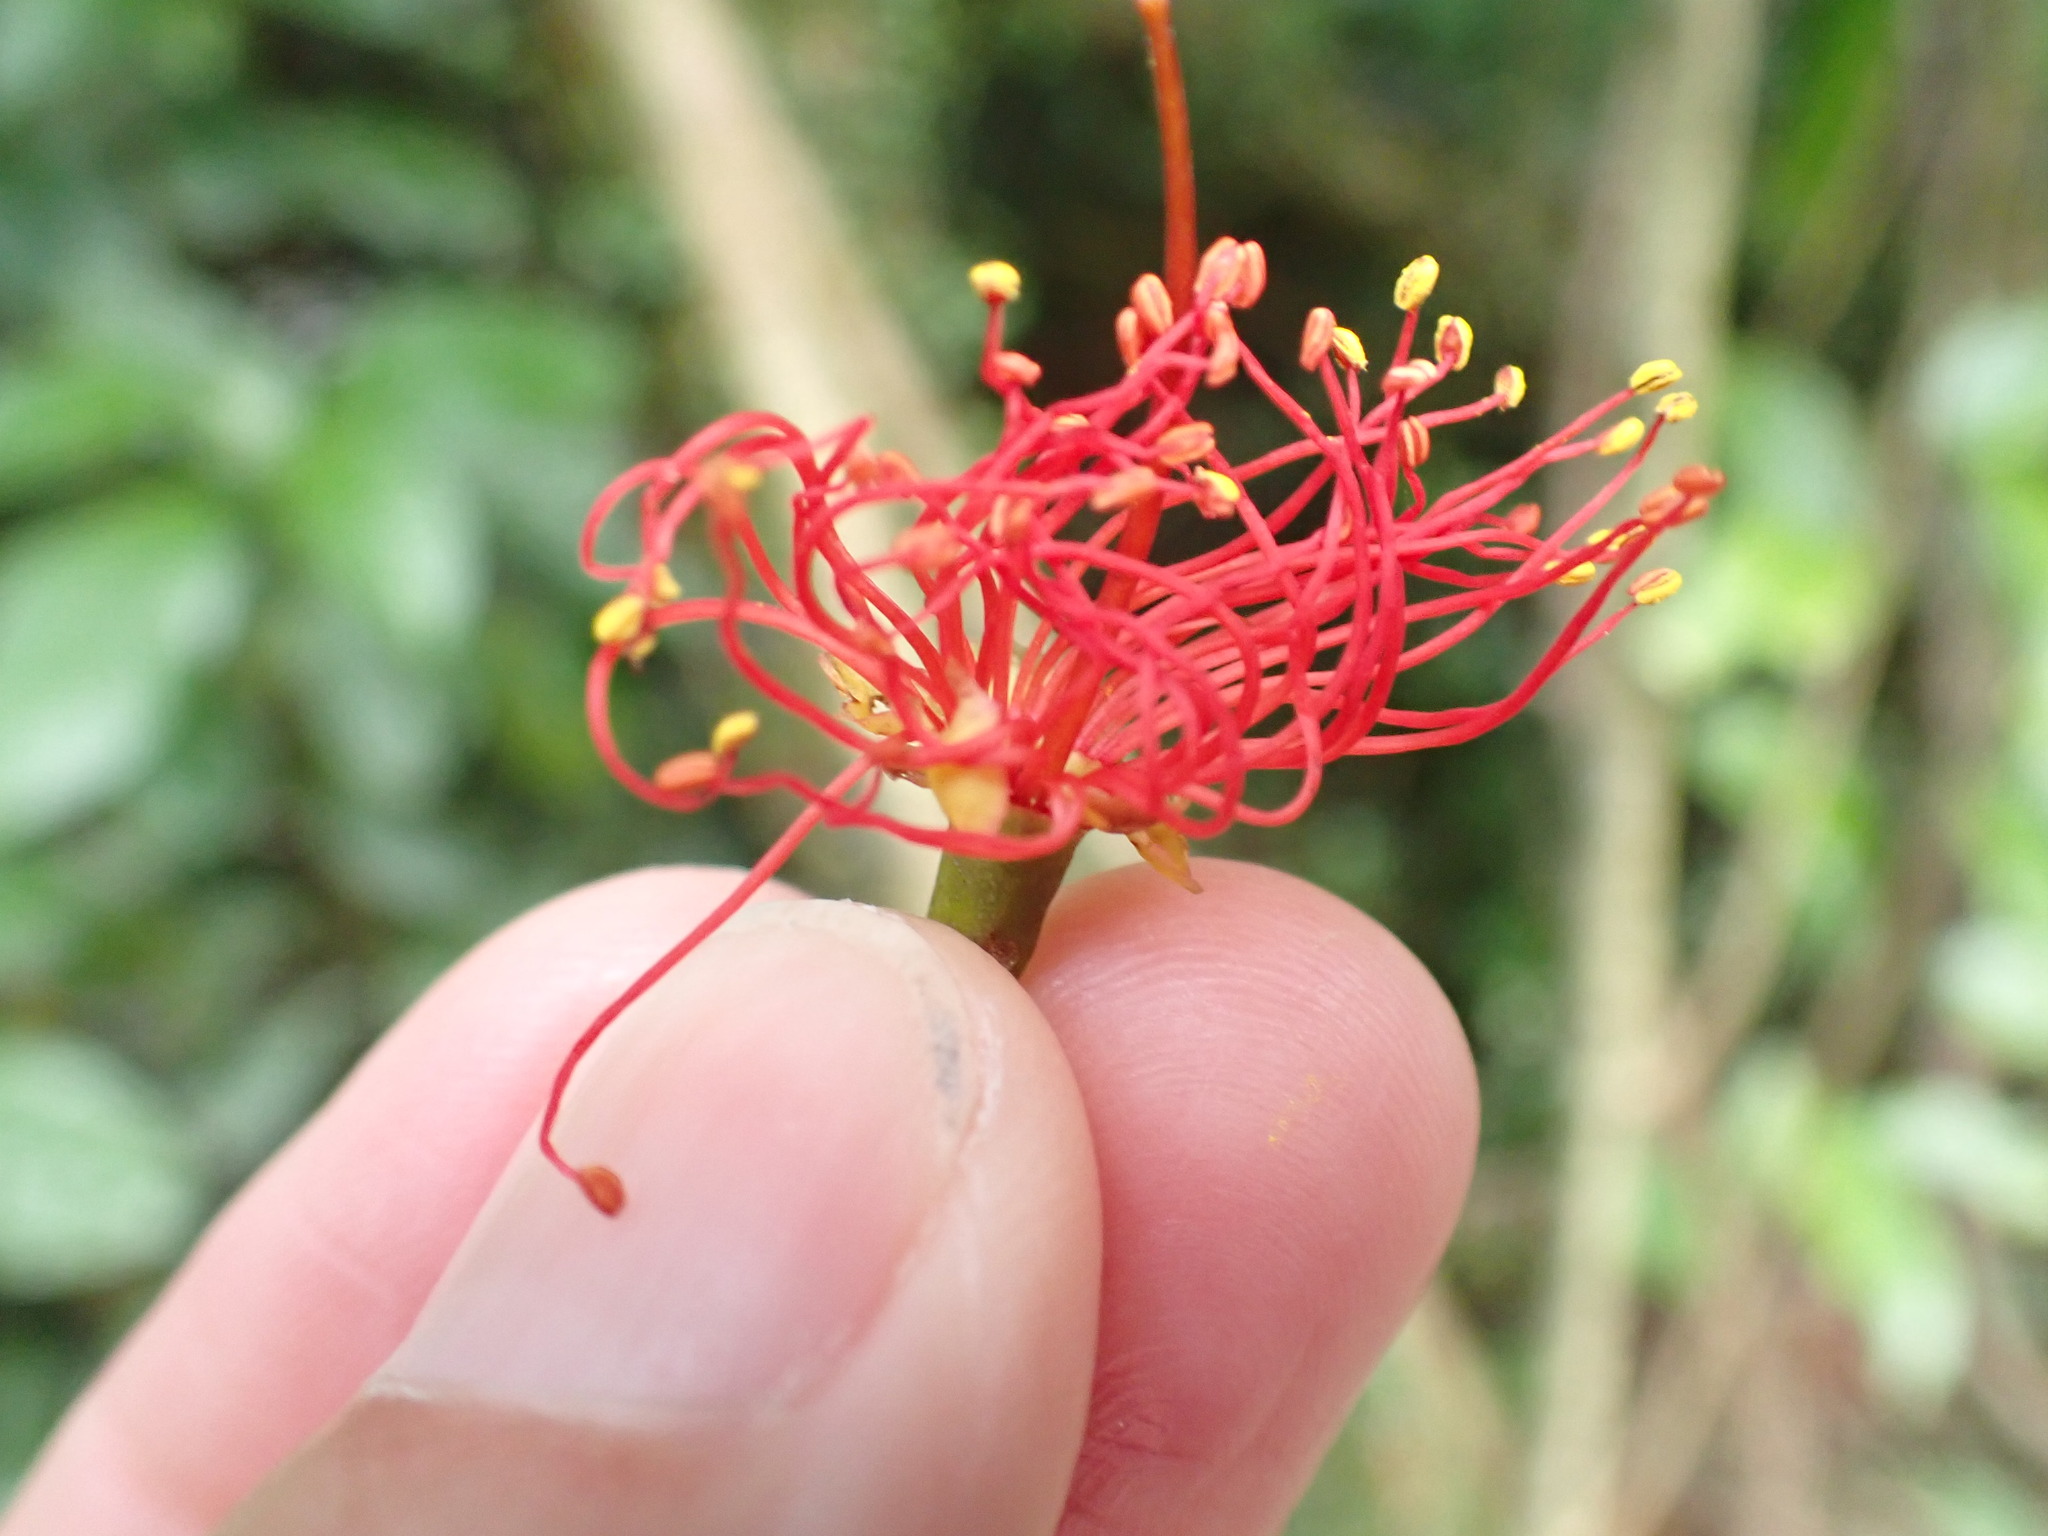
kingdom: Plantae
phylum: Tracheophyta
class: Magnoliopsida
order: Myrtales
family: Myrtaceae
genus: Metrosideros
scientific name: Metrosideros fulgens
